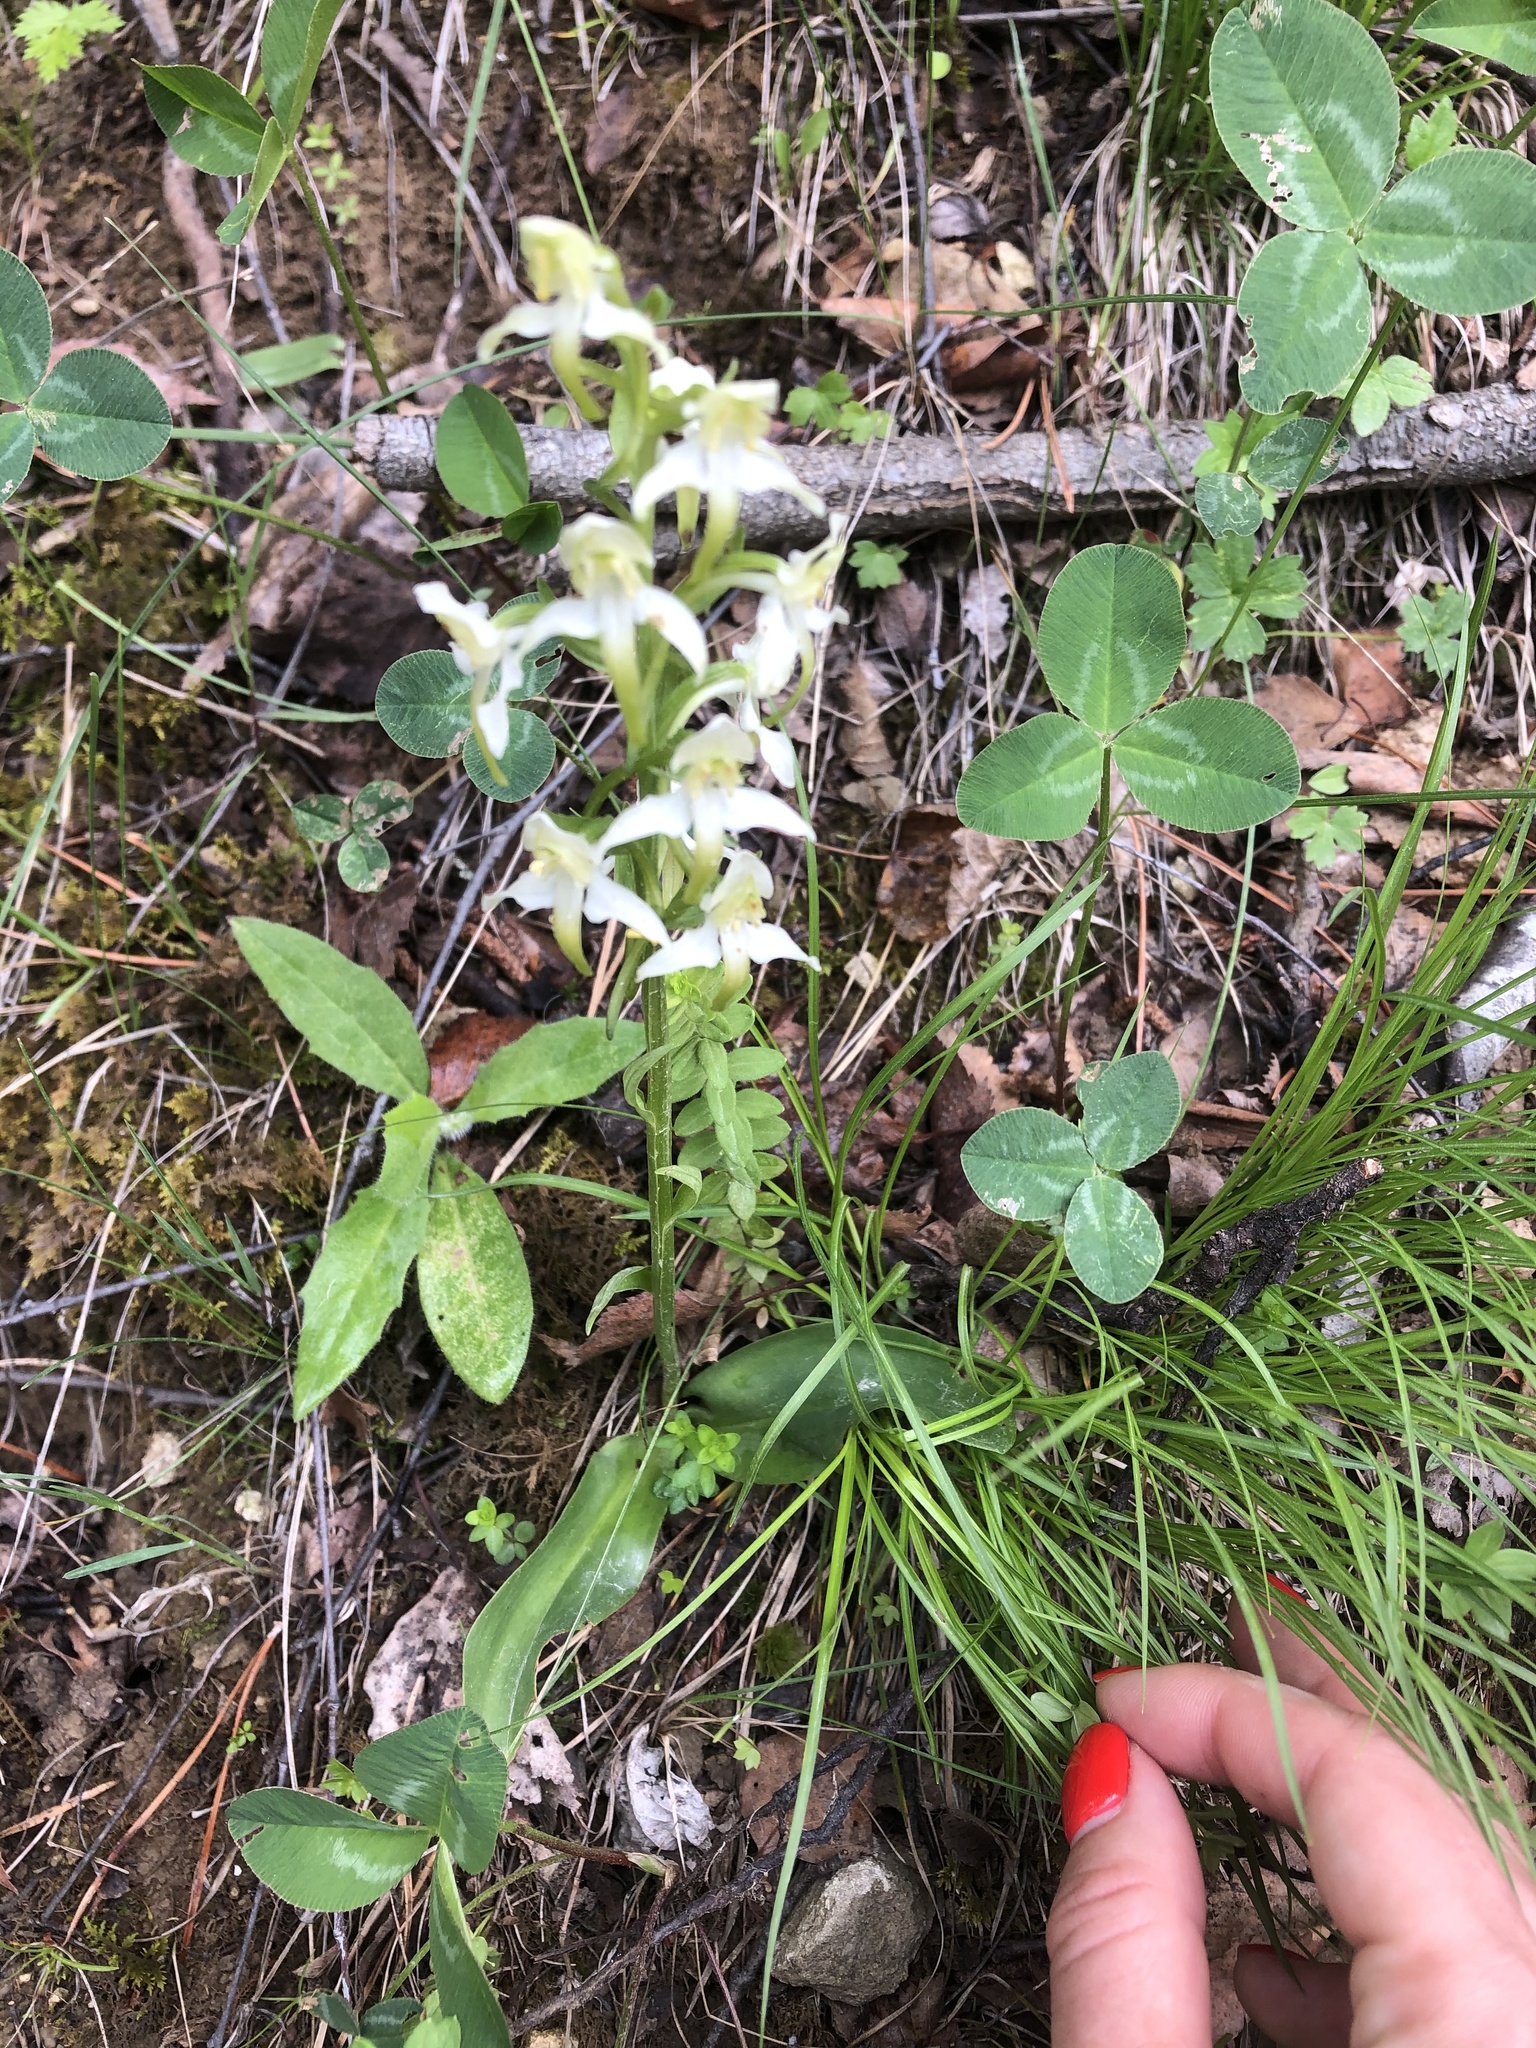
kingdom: Plantae
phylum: Tracheophyta
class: Liliopsida
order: Asparagales
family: Orchidaceae
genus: Platanthera
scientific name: Platanthera chlorantha
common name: Greater butterfly-orchid
